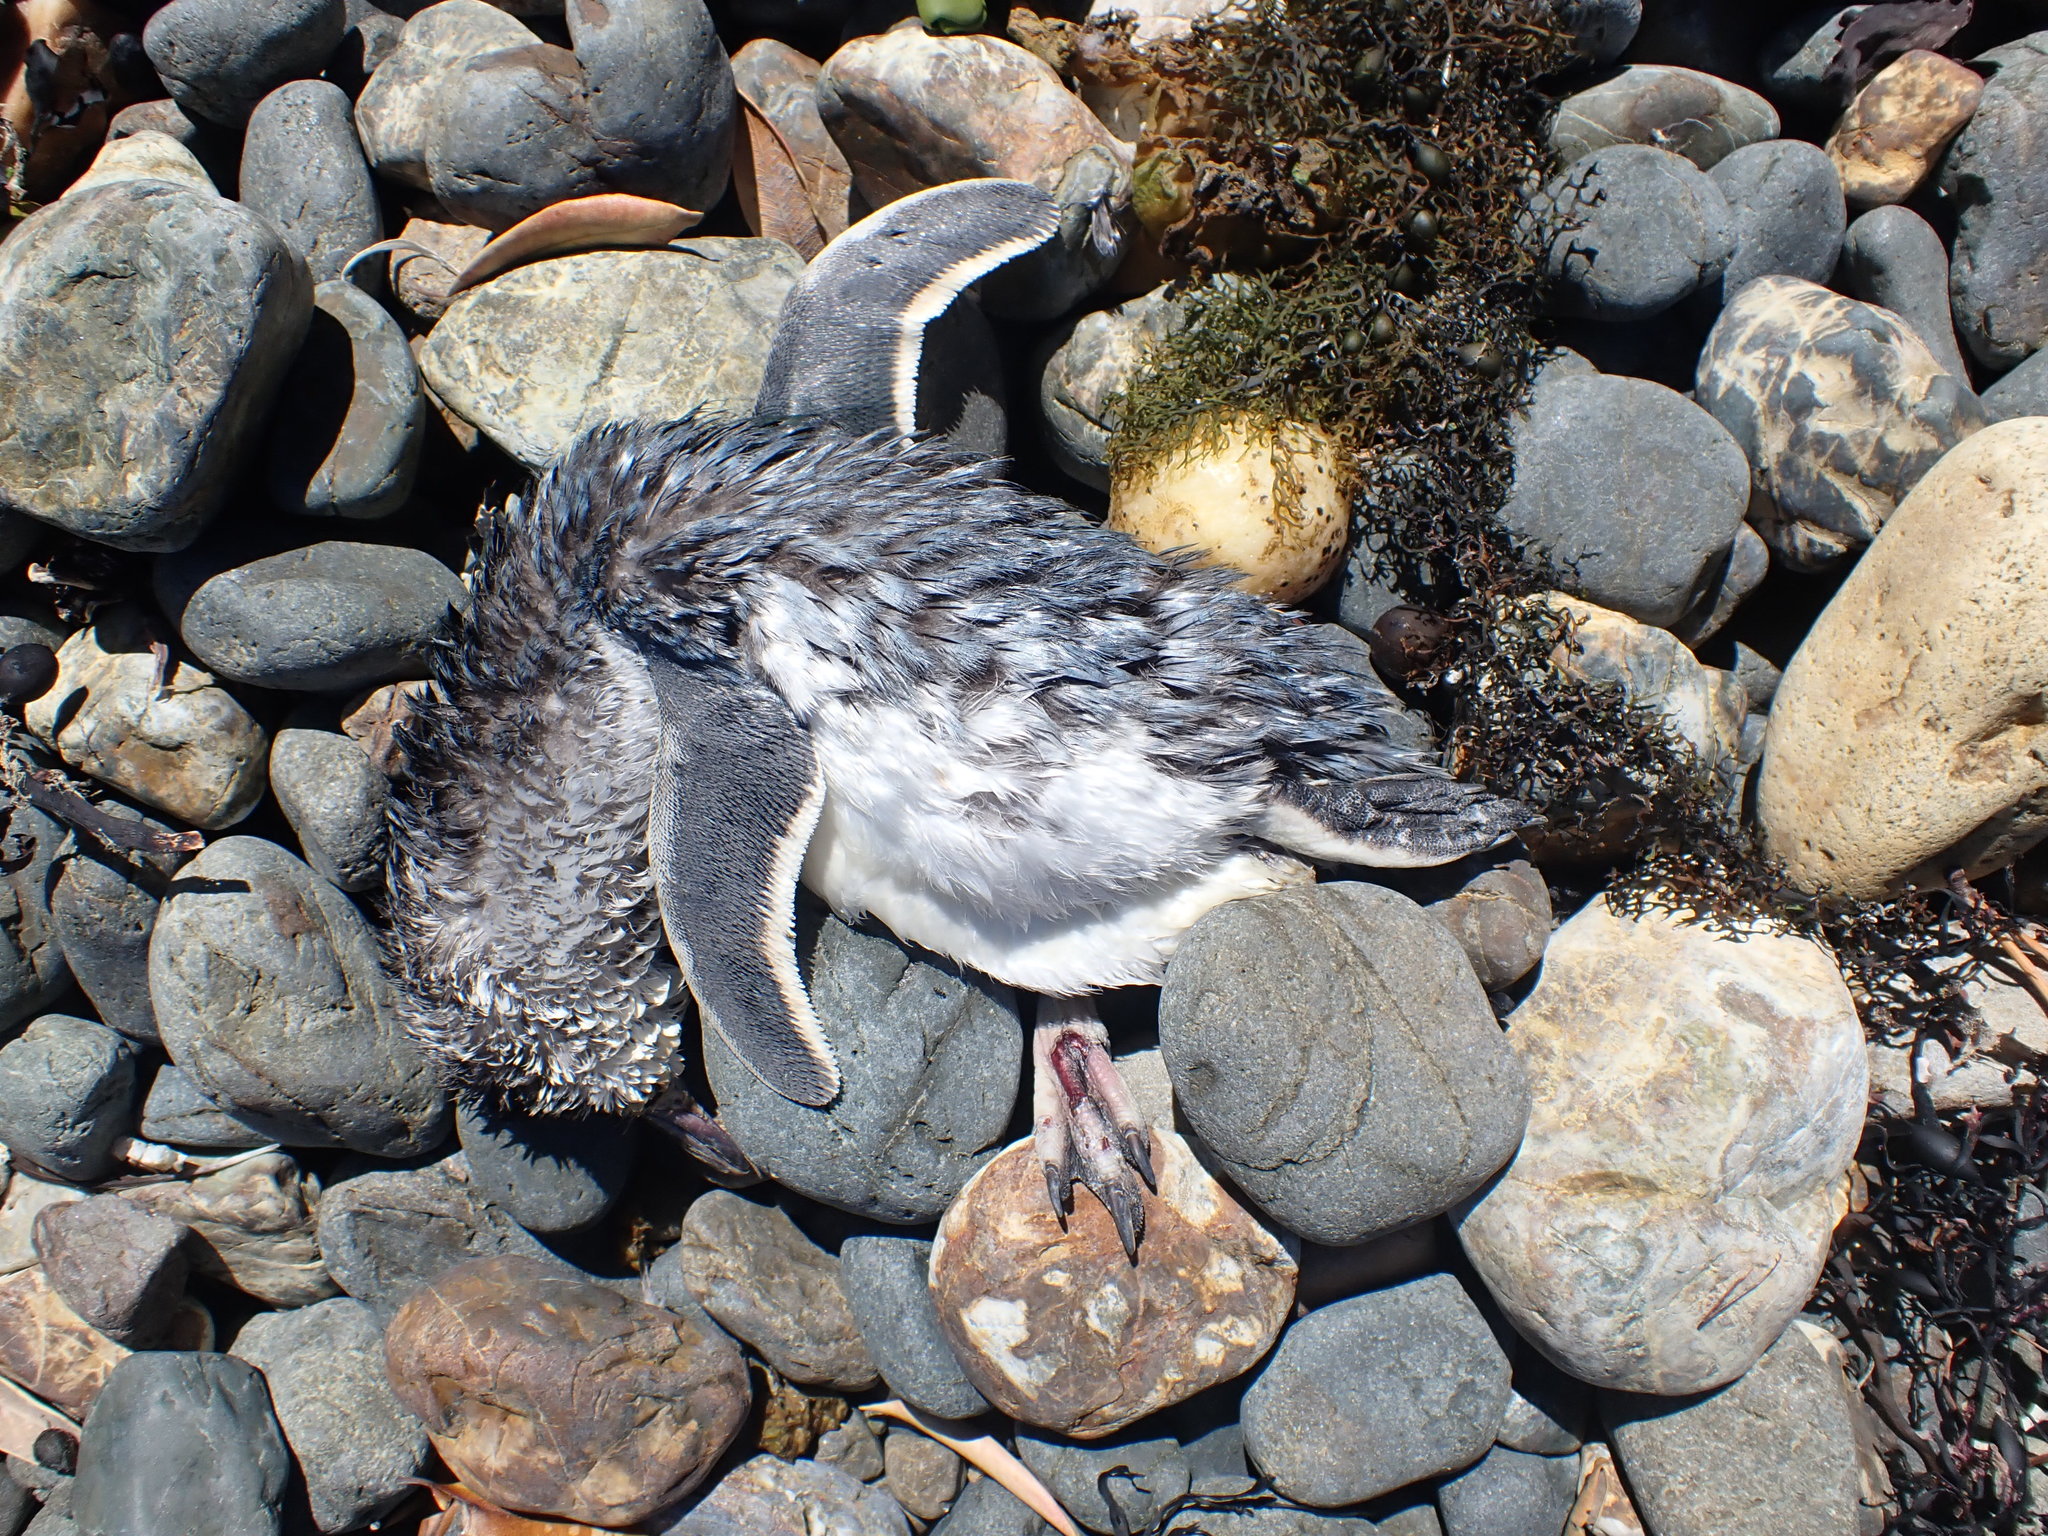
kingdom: Animalia
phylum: Chordata
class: Aves
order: Sphenisciformes
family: Spheniscidae
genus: Eudyptula
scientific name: Eudyptula minor
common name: Little penguin
